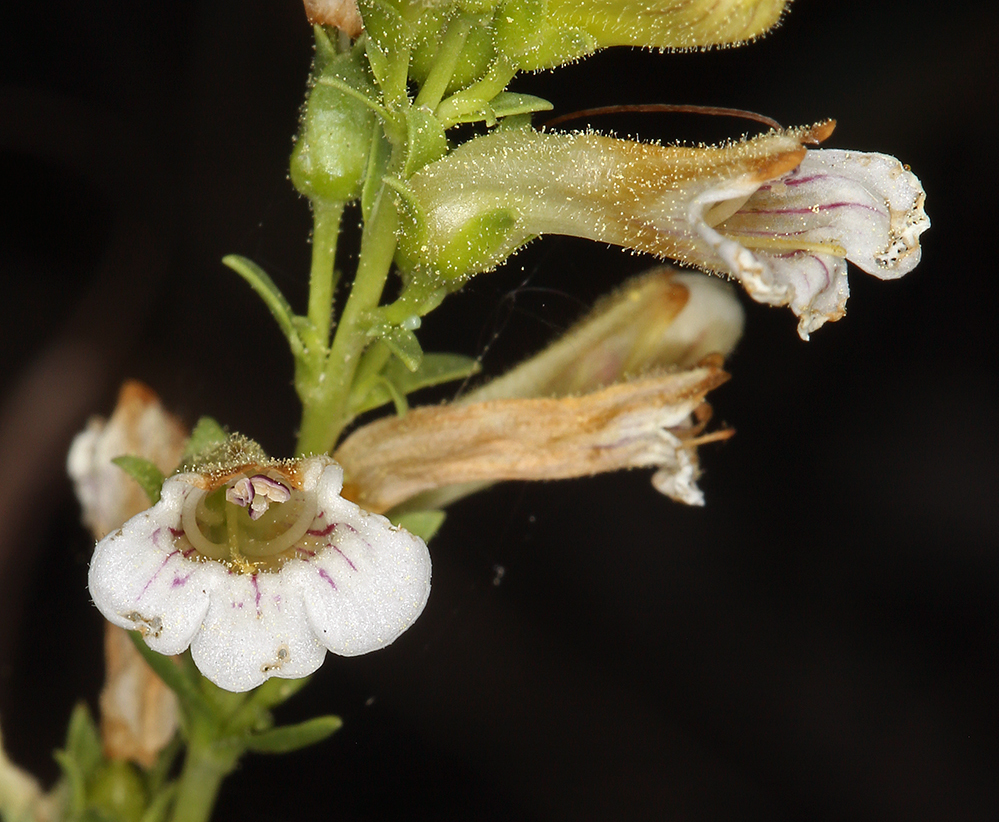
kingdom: Plantae
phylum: Tracheophyta
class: Magnoliopsida
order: Lamiales
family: Plantaginaceae
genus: Penstemon
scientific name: Penstemon deustus
